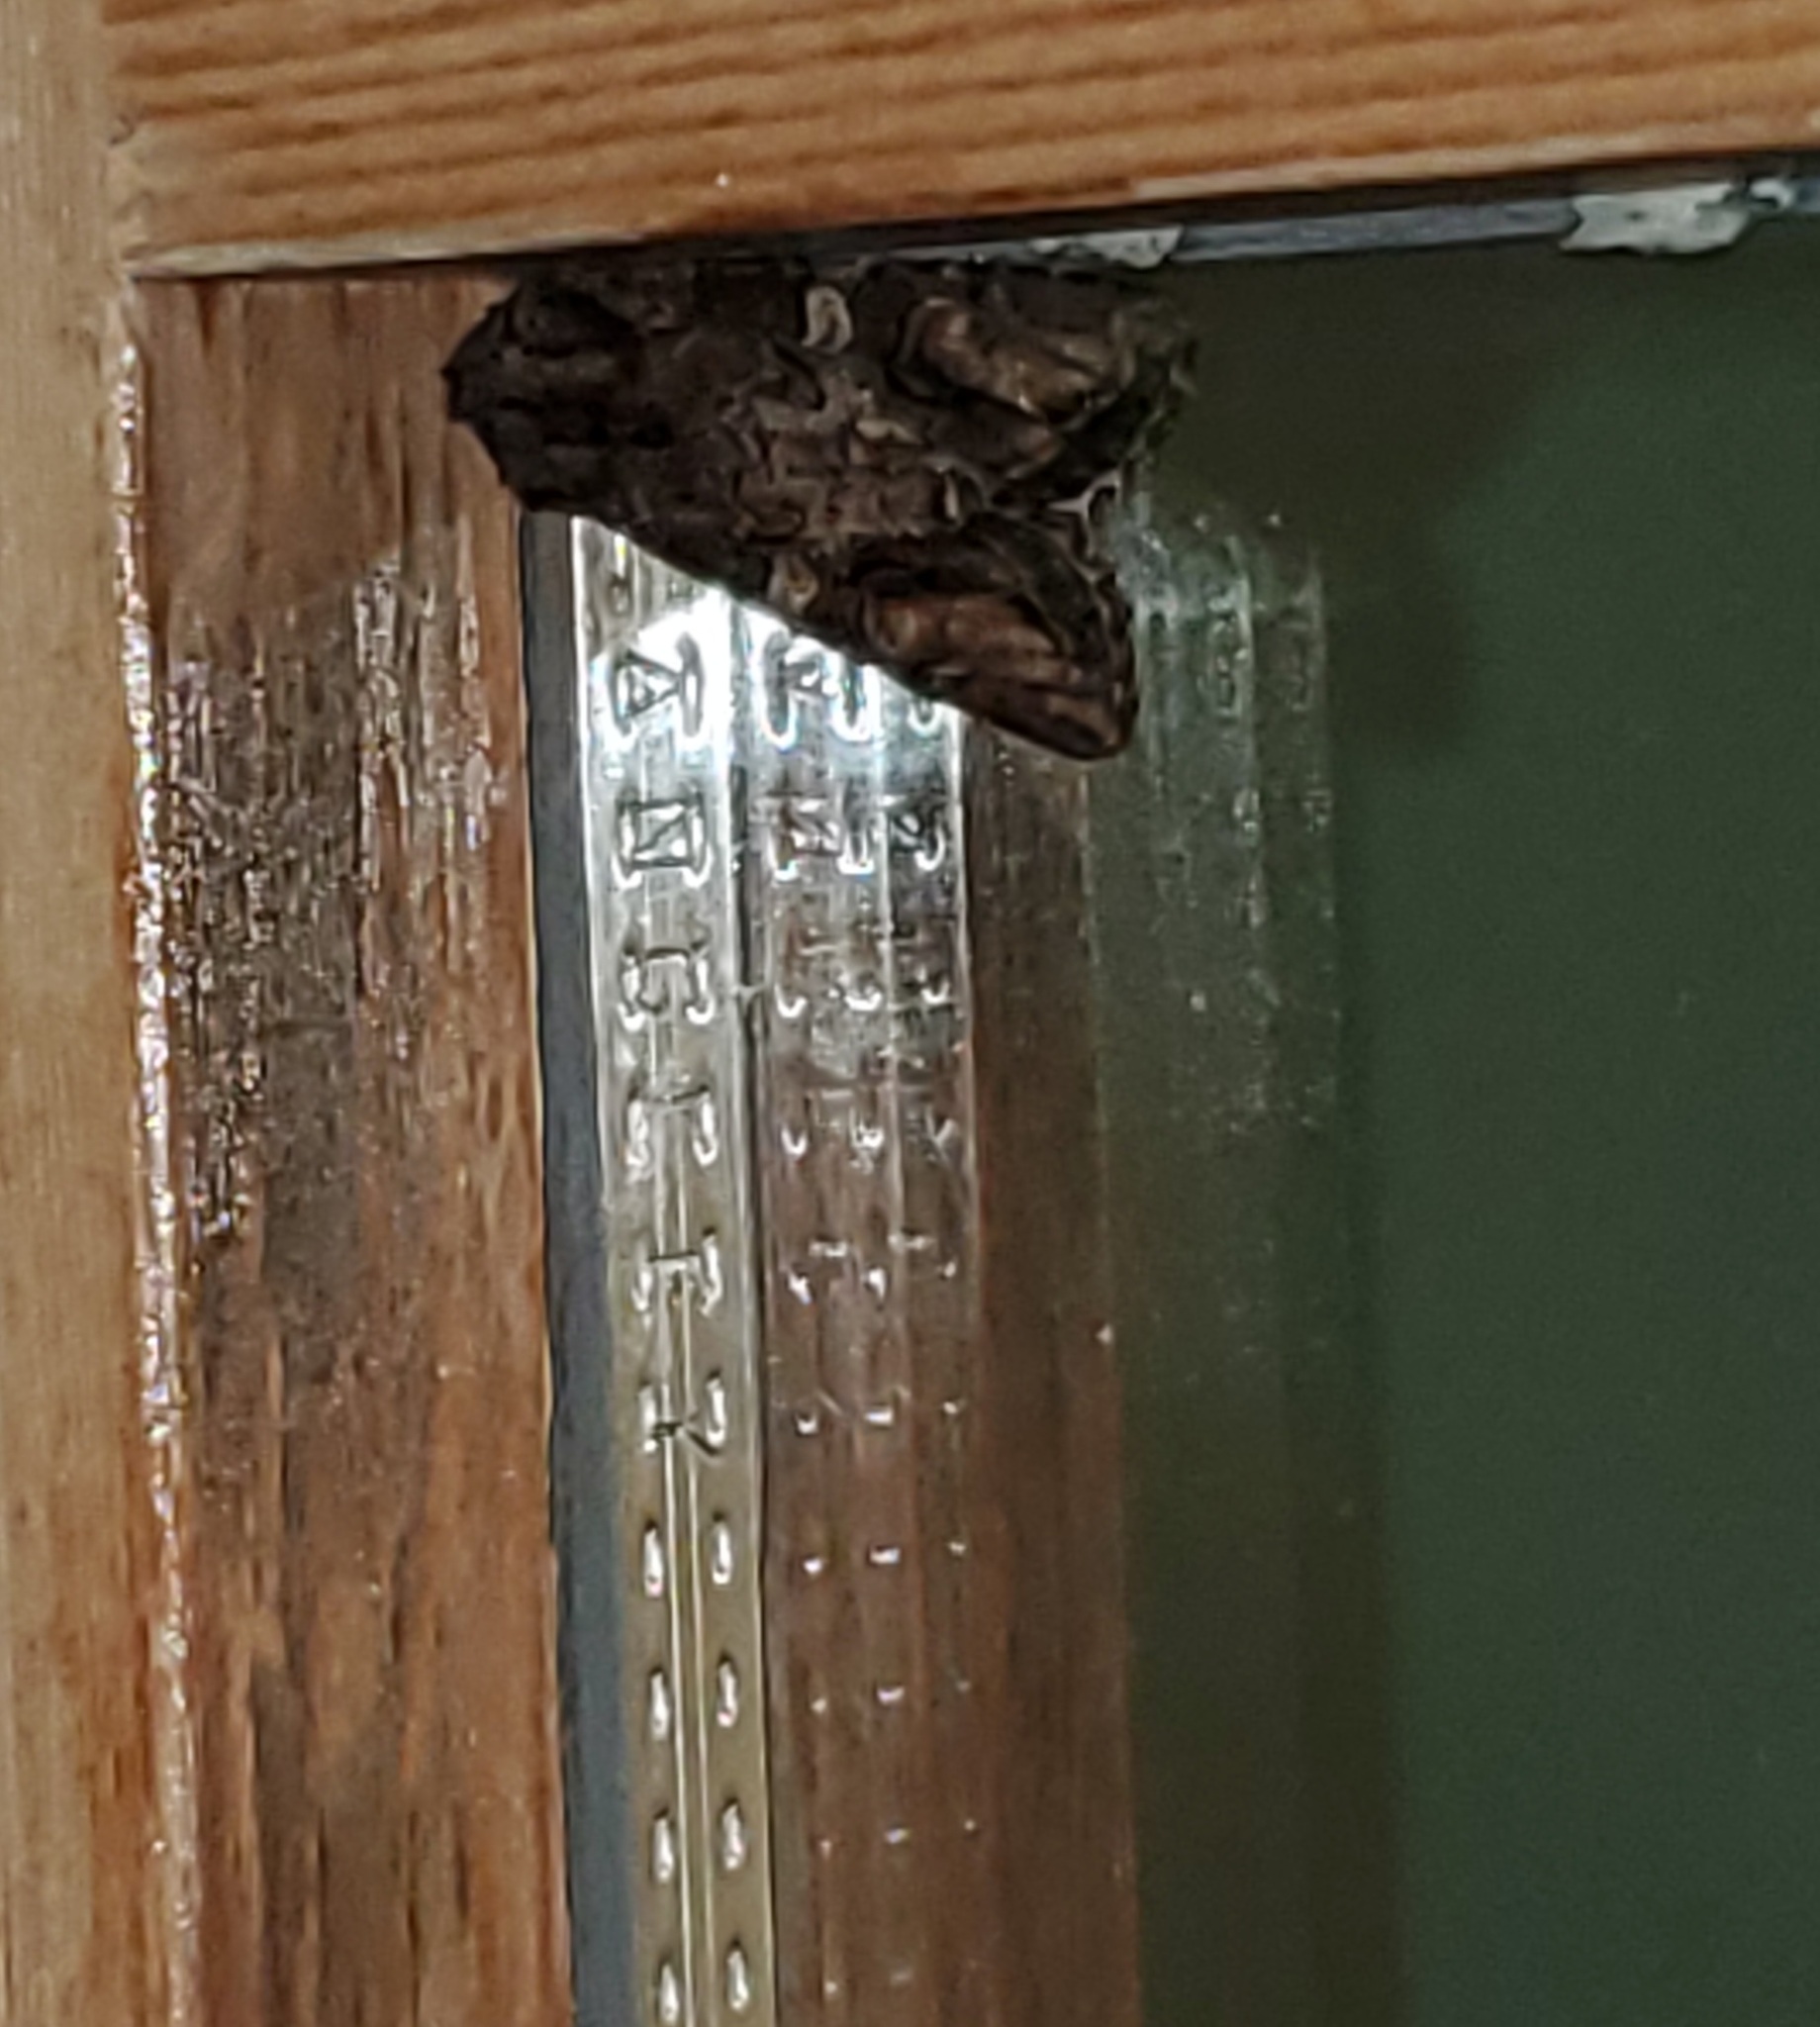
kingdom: Animalia
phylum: Arthropoda
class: Insecta
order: Lepidoptera
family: Noctuidae
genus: Egira
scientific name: Egira perlubens
